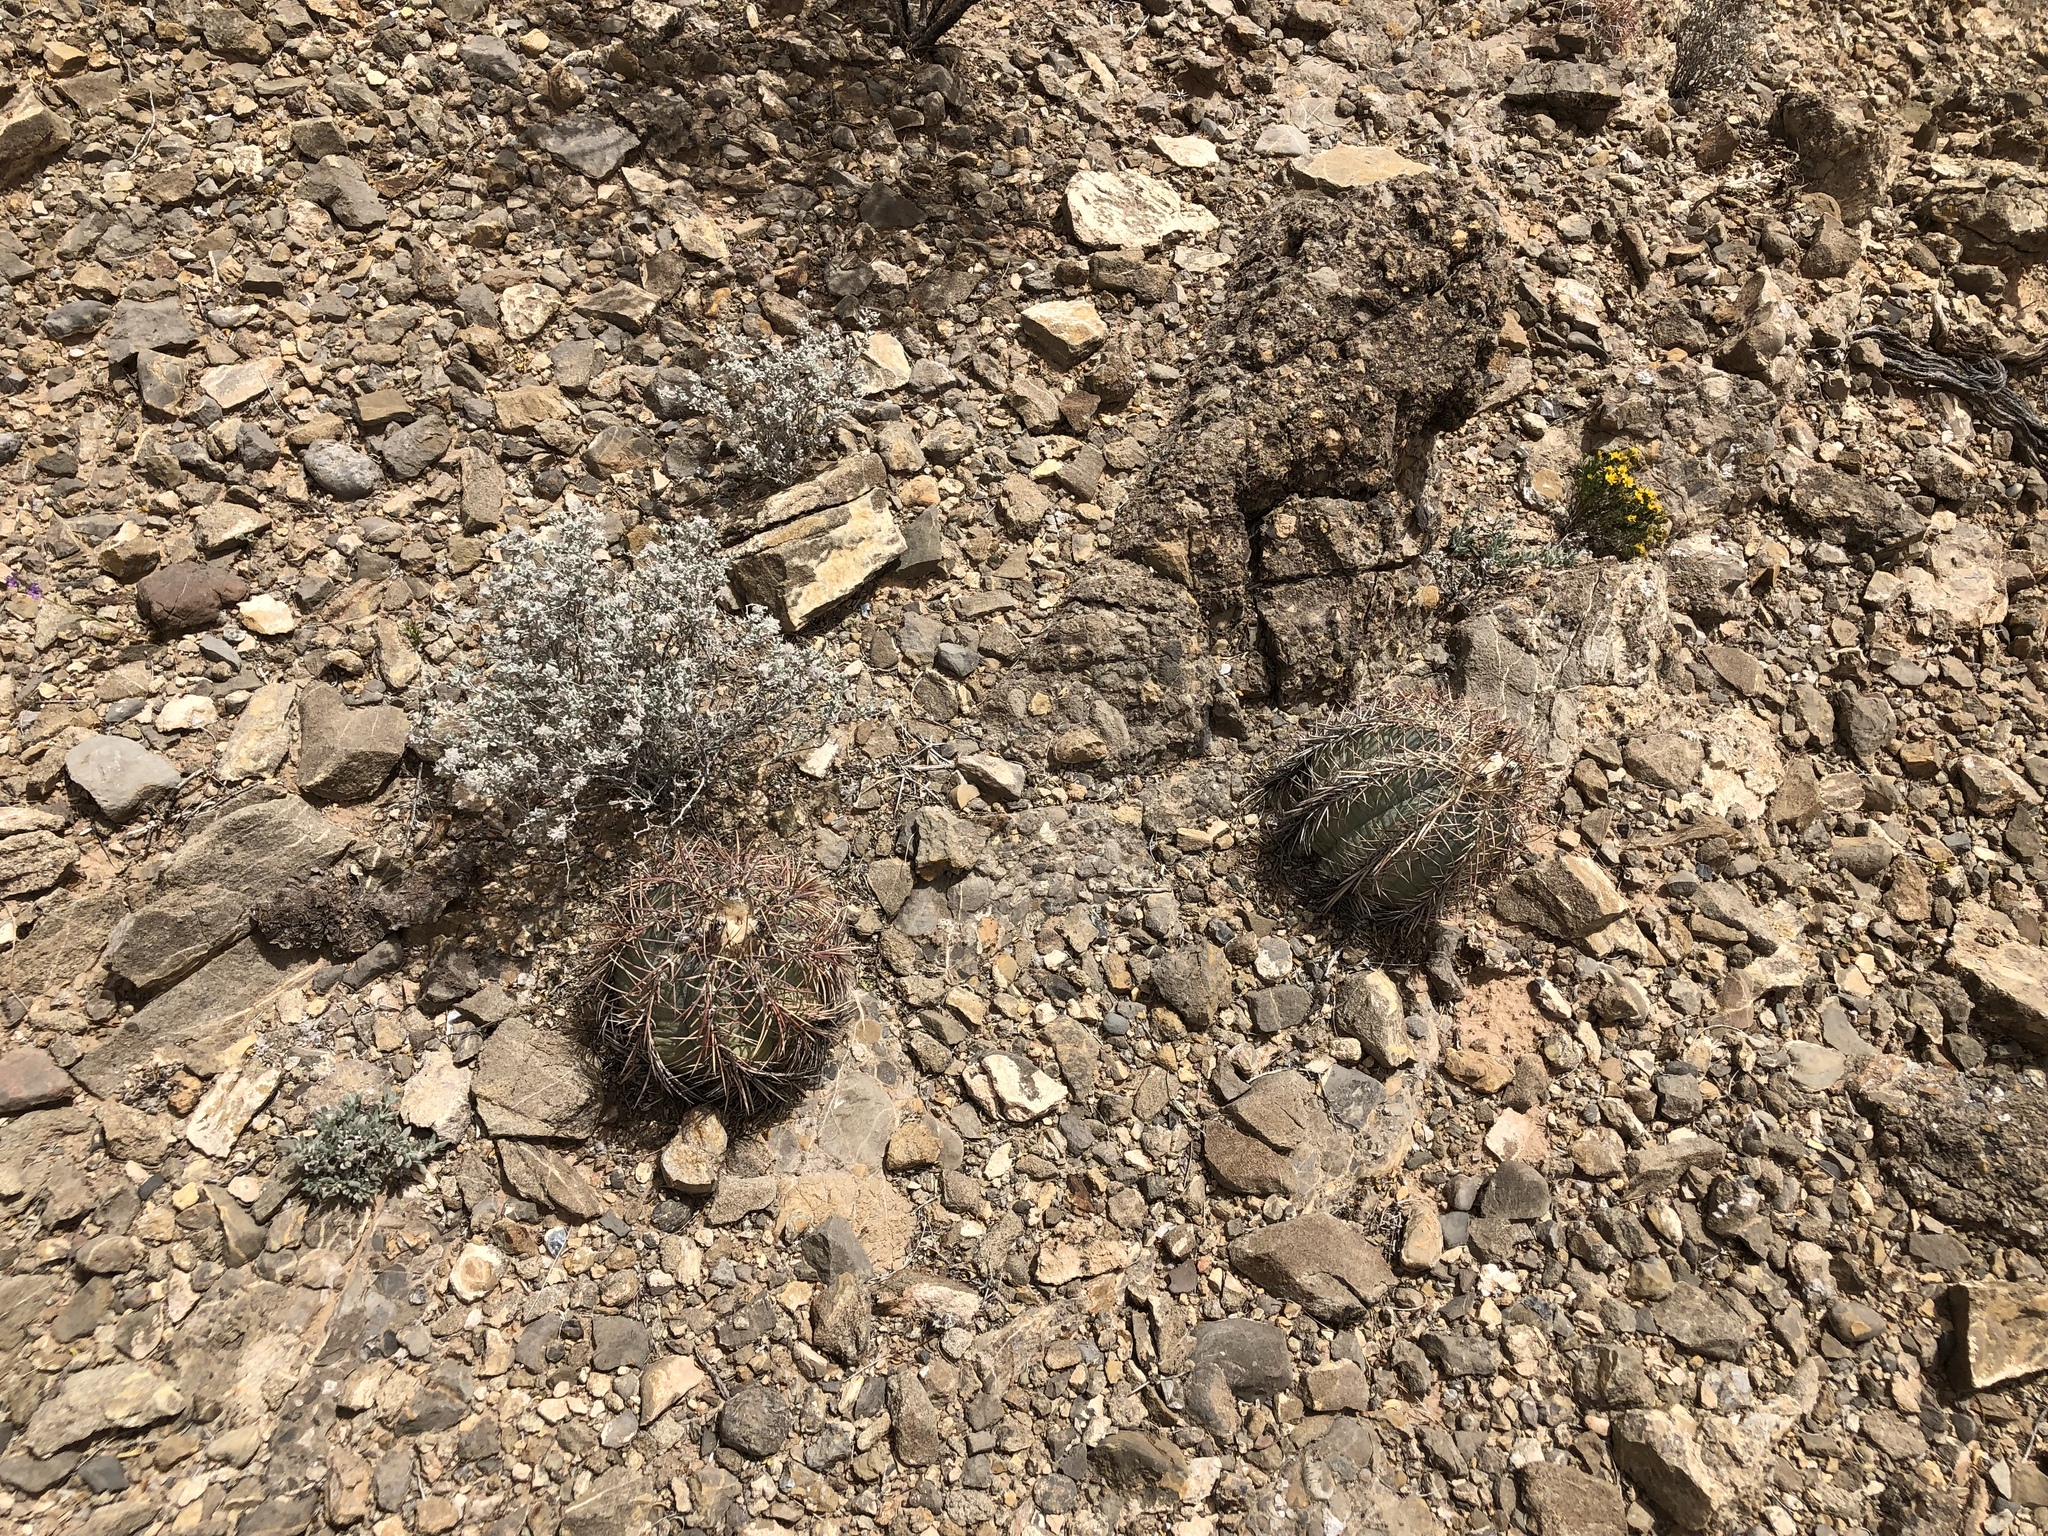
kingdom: Plantae
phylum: Tracheophyta
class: Magnoliopsida
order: Caryophyllales
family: Cactaceae
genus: Echinocactus
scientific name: Echinocactus horizonthalonius
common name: Devilshead
